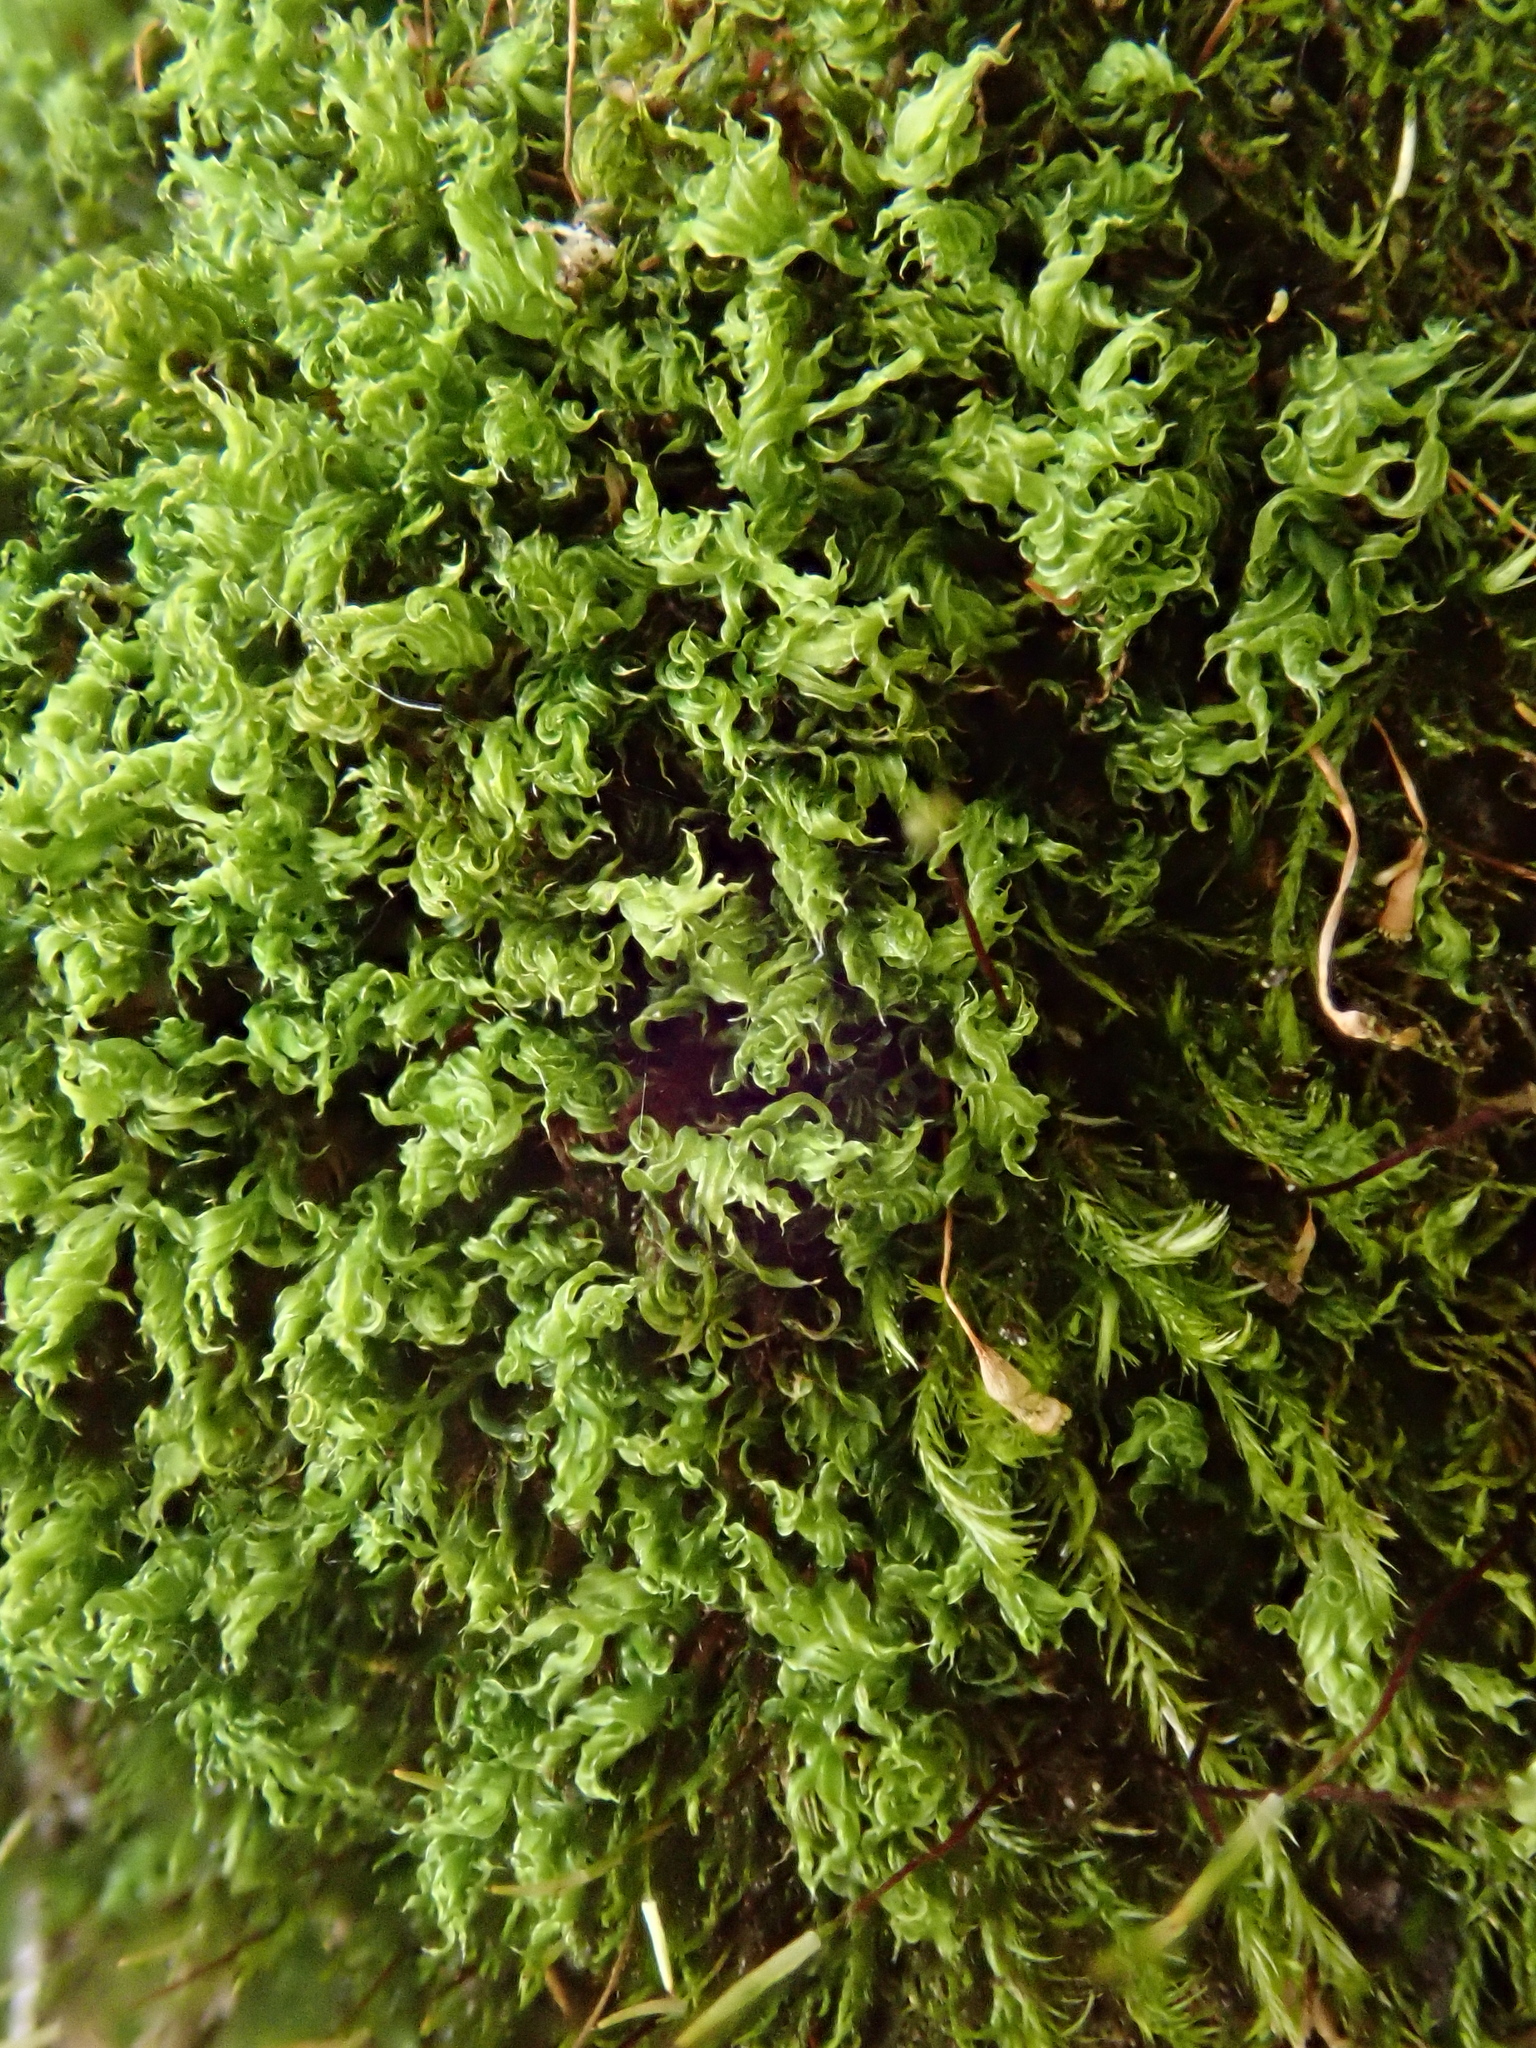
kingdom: Plantae
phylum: Bryophyta
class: Bryopsida
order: Bryales
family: Bryaceae
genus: Rosulabryum
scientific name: Rosulabryum moravicum
